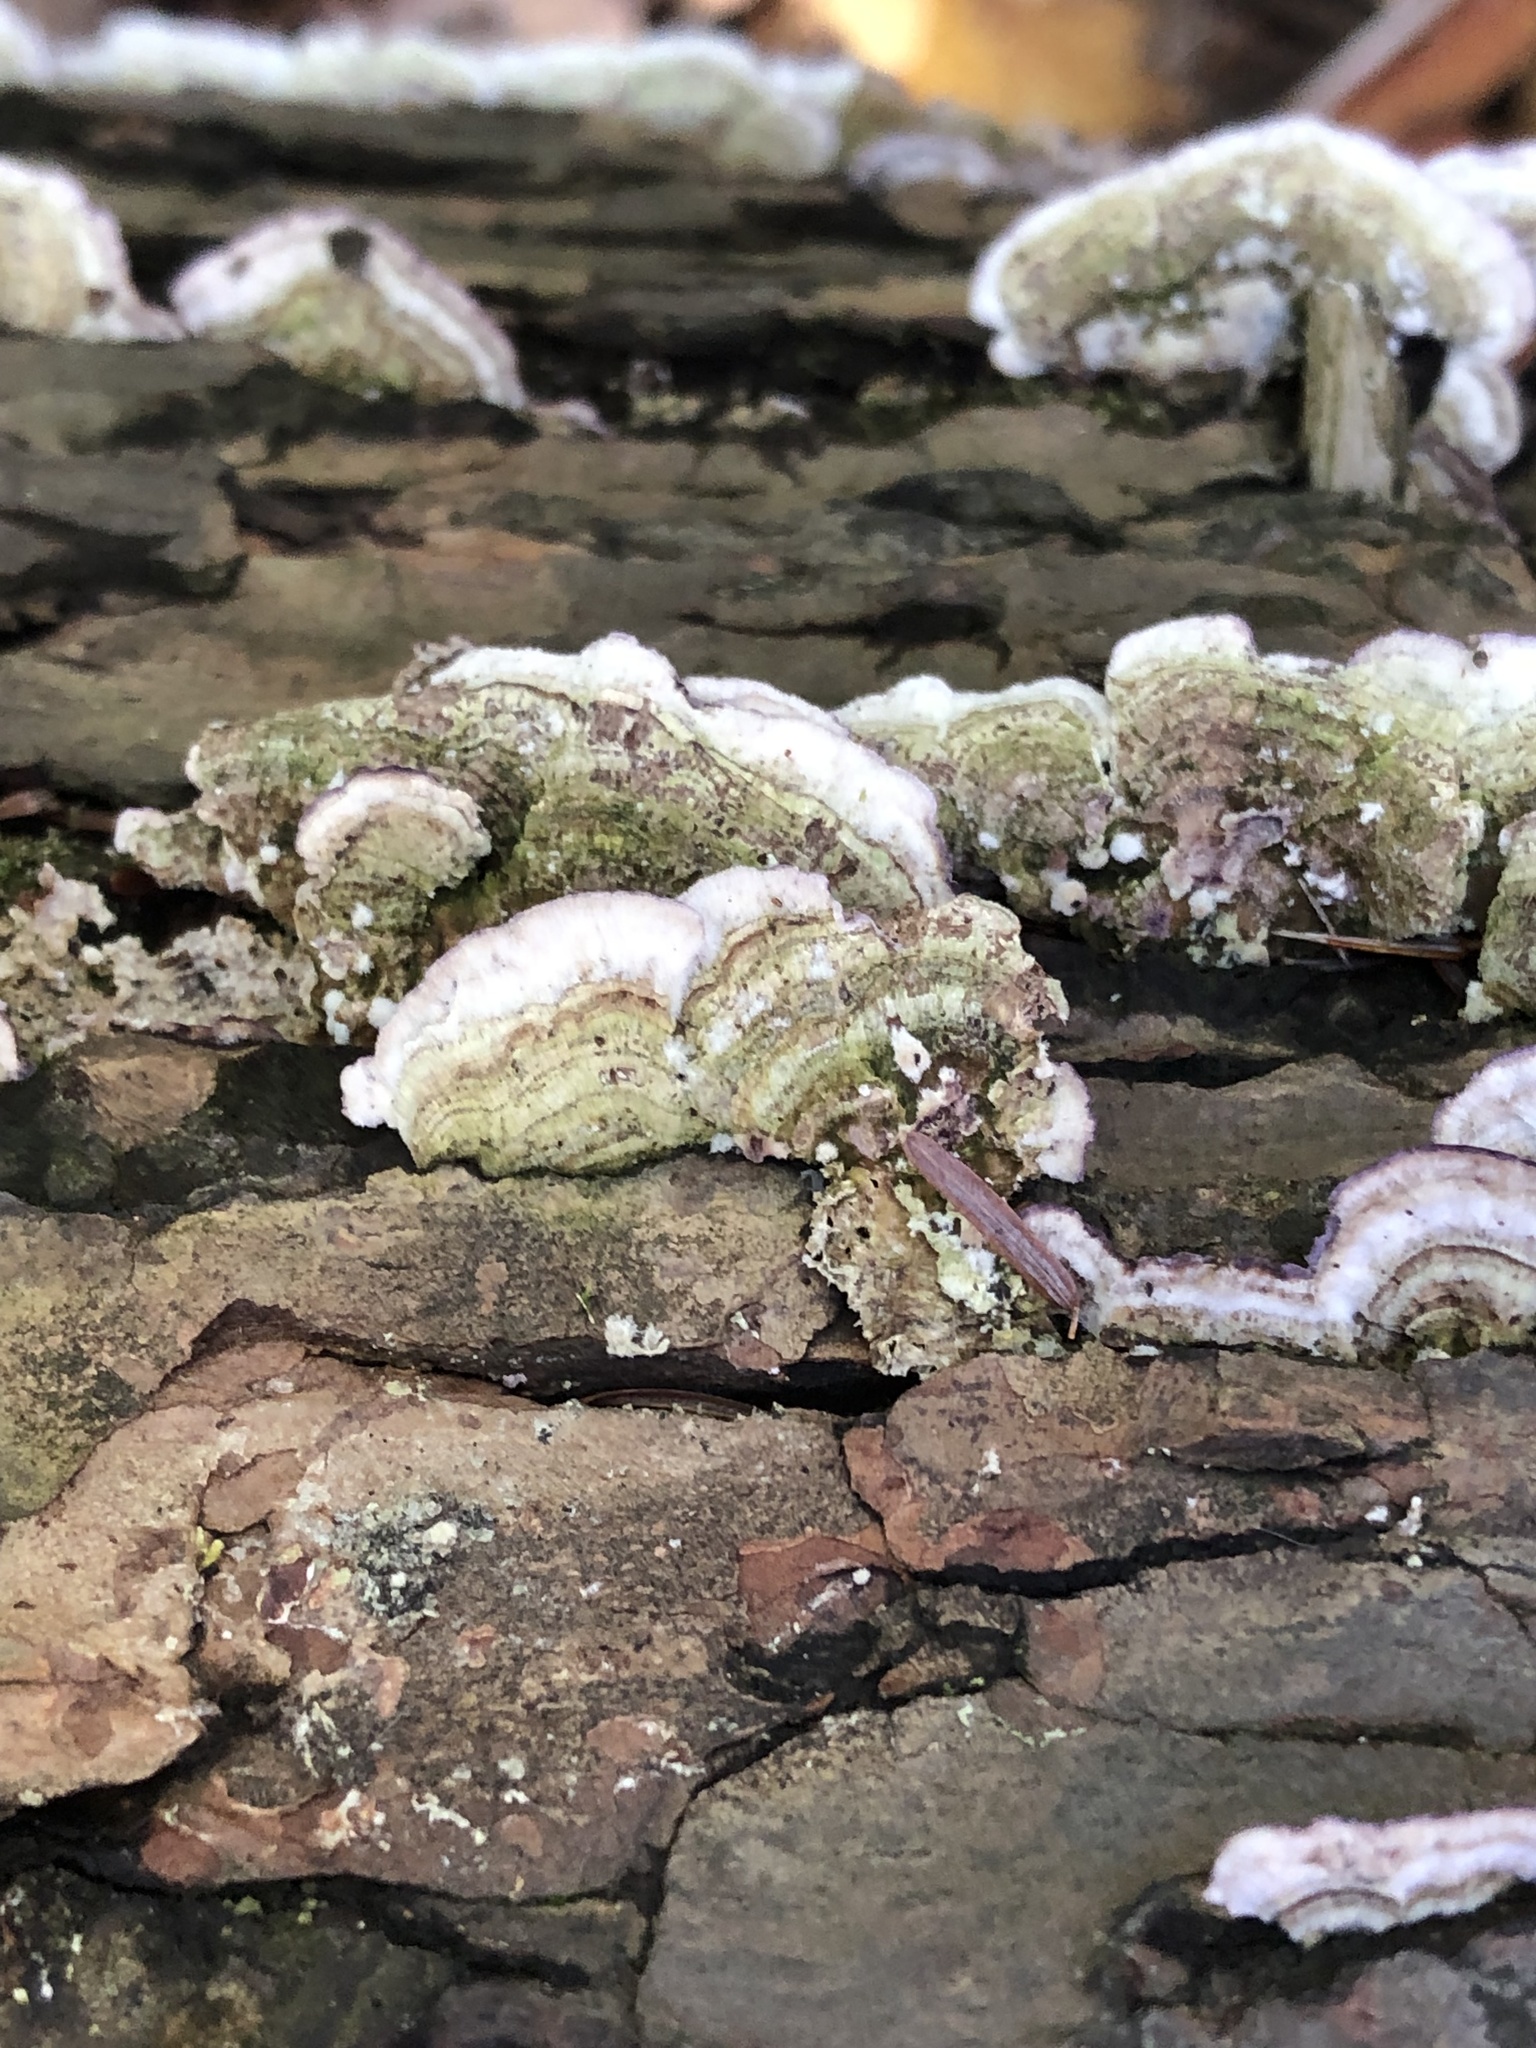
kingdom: Fungi
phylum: Basidiomycota
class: Agaricomycetes
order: Hymenochaetales
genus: Trichaptum
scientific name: Trichaptum abietinum
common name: Purplepore bracket
